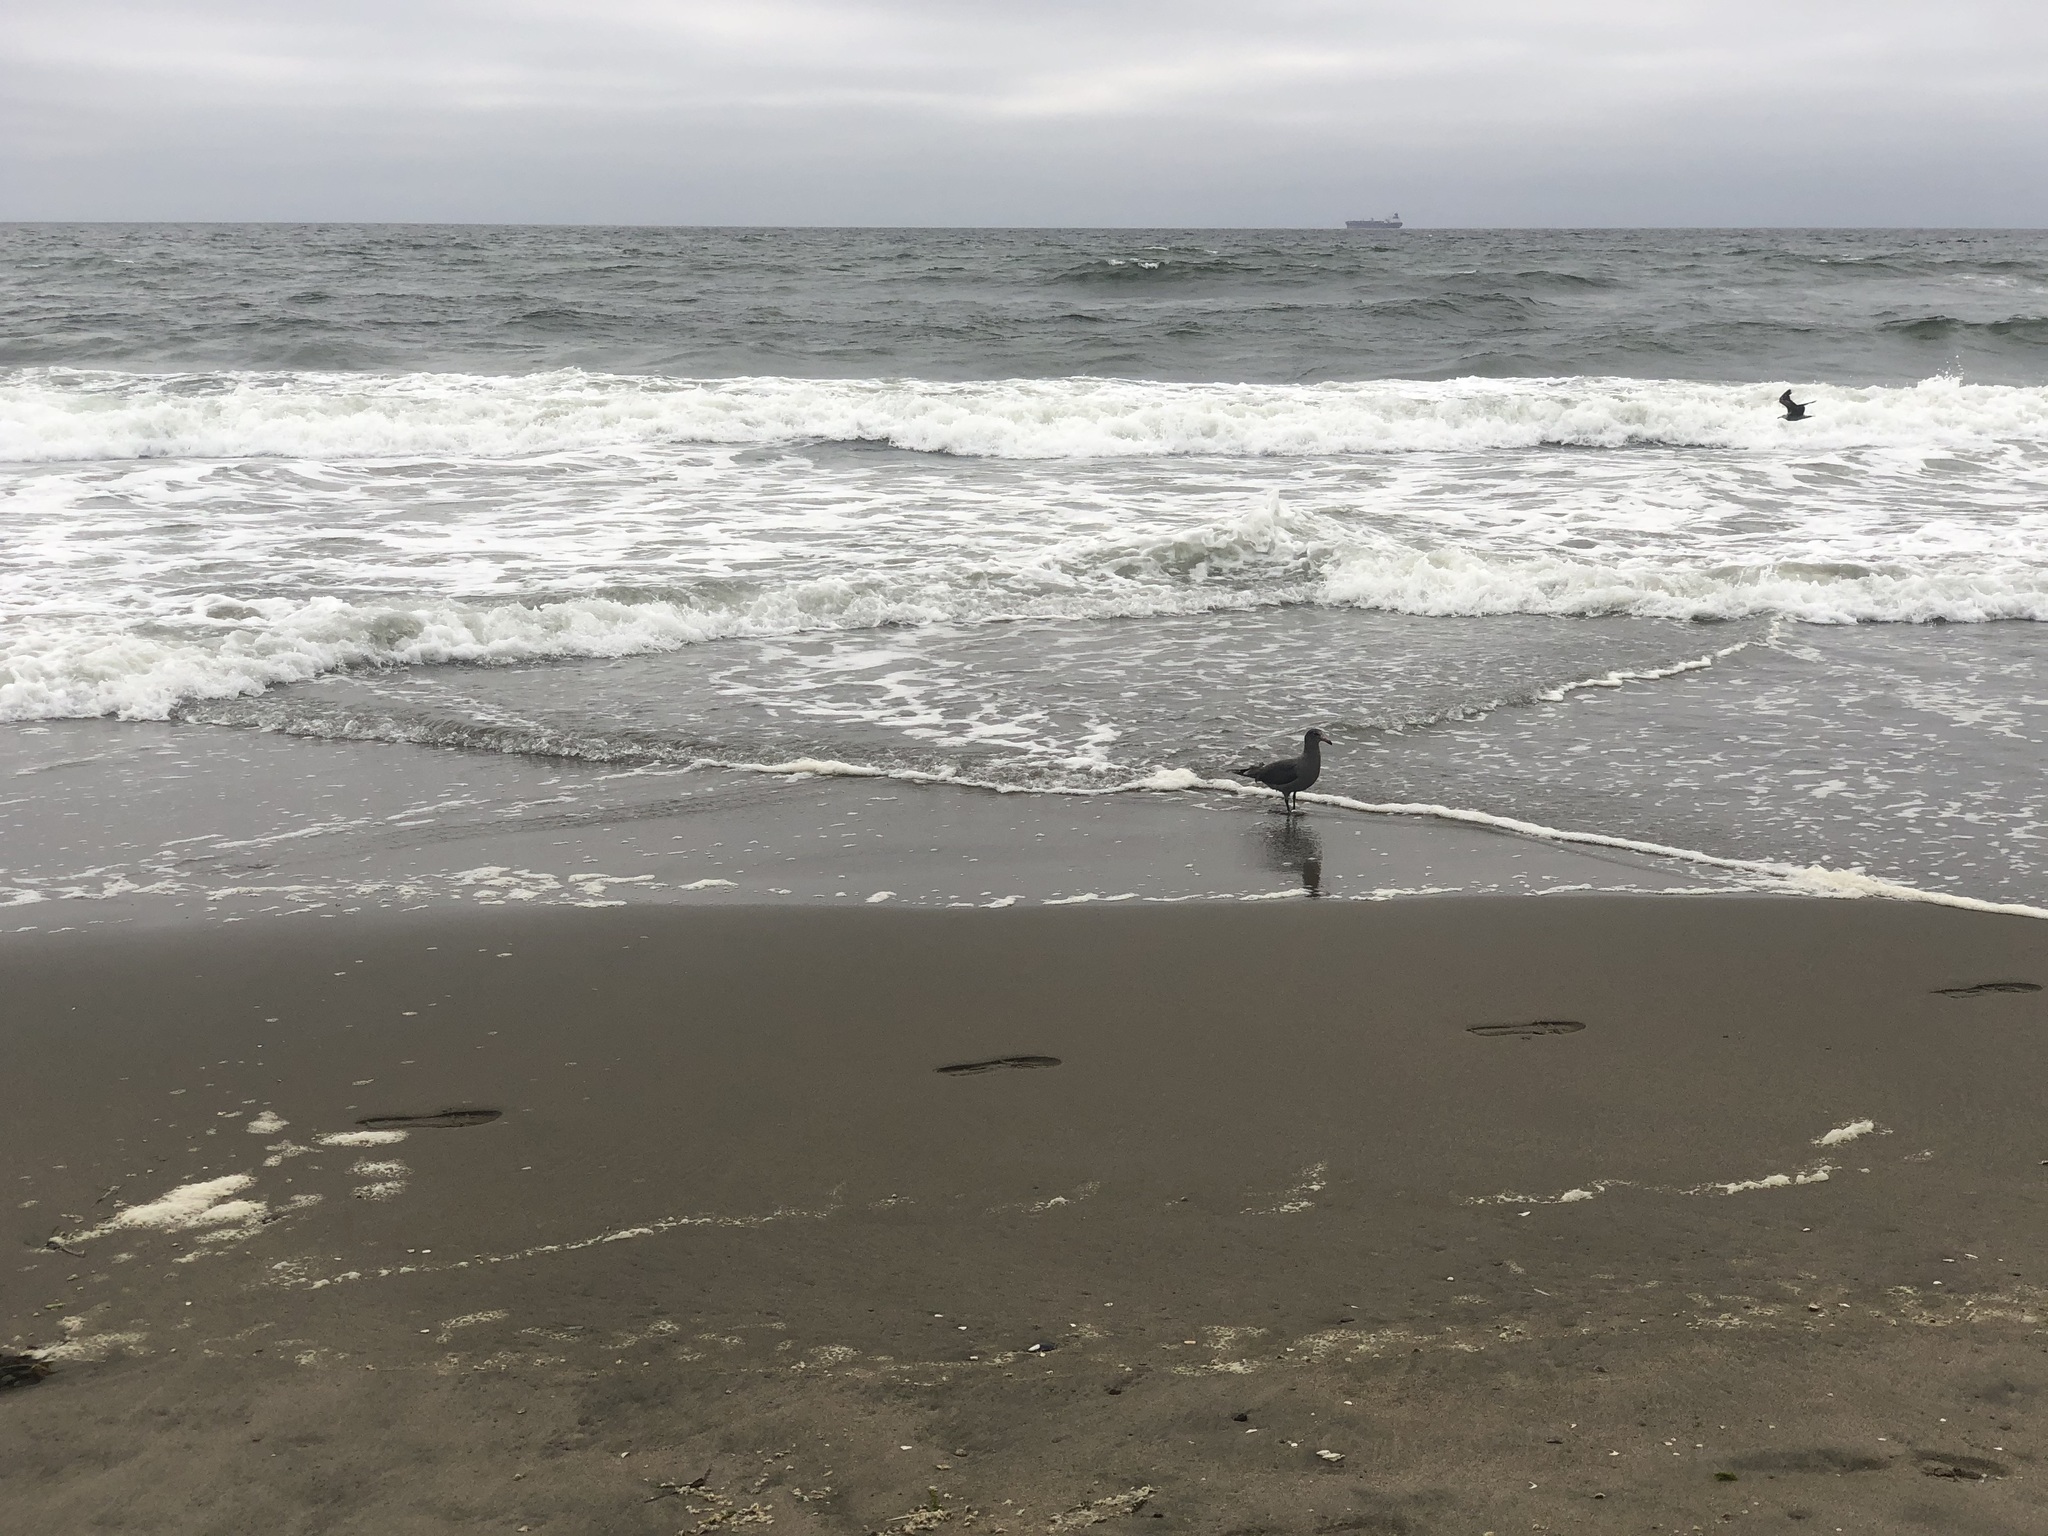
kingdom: Animalia
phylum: Chordata
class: Aves
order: Charadriiformes
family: Laridae
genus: Larus
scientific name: Larus heermanni
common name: Heermann's gull
